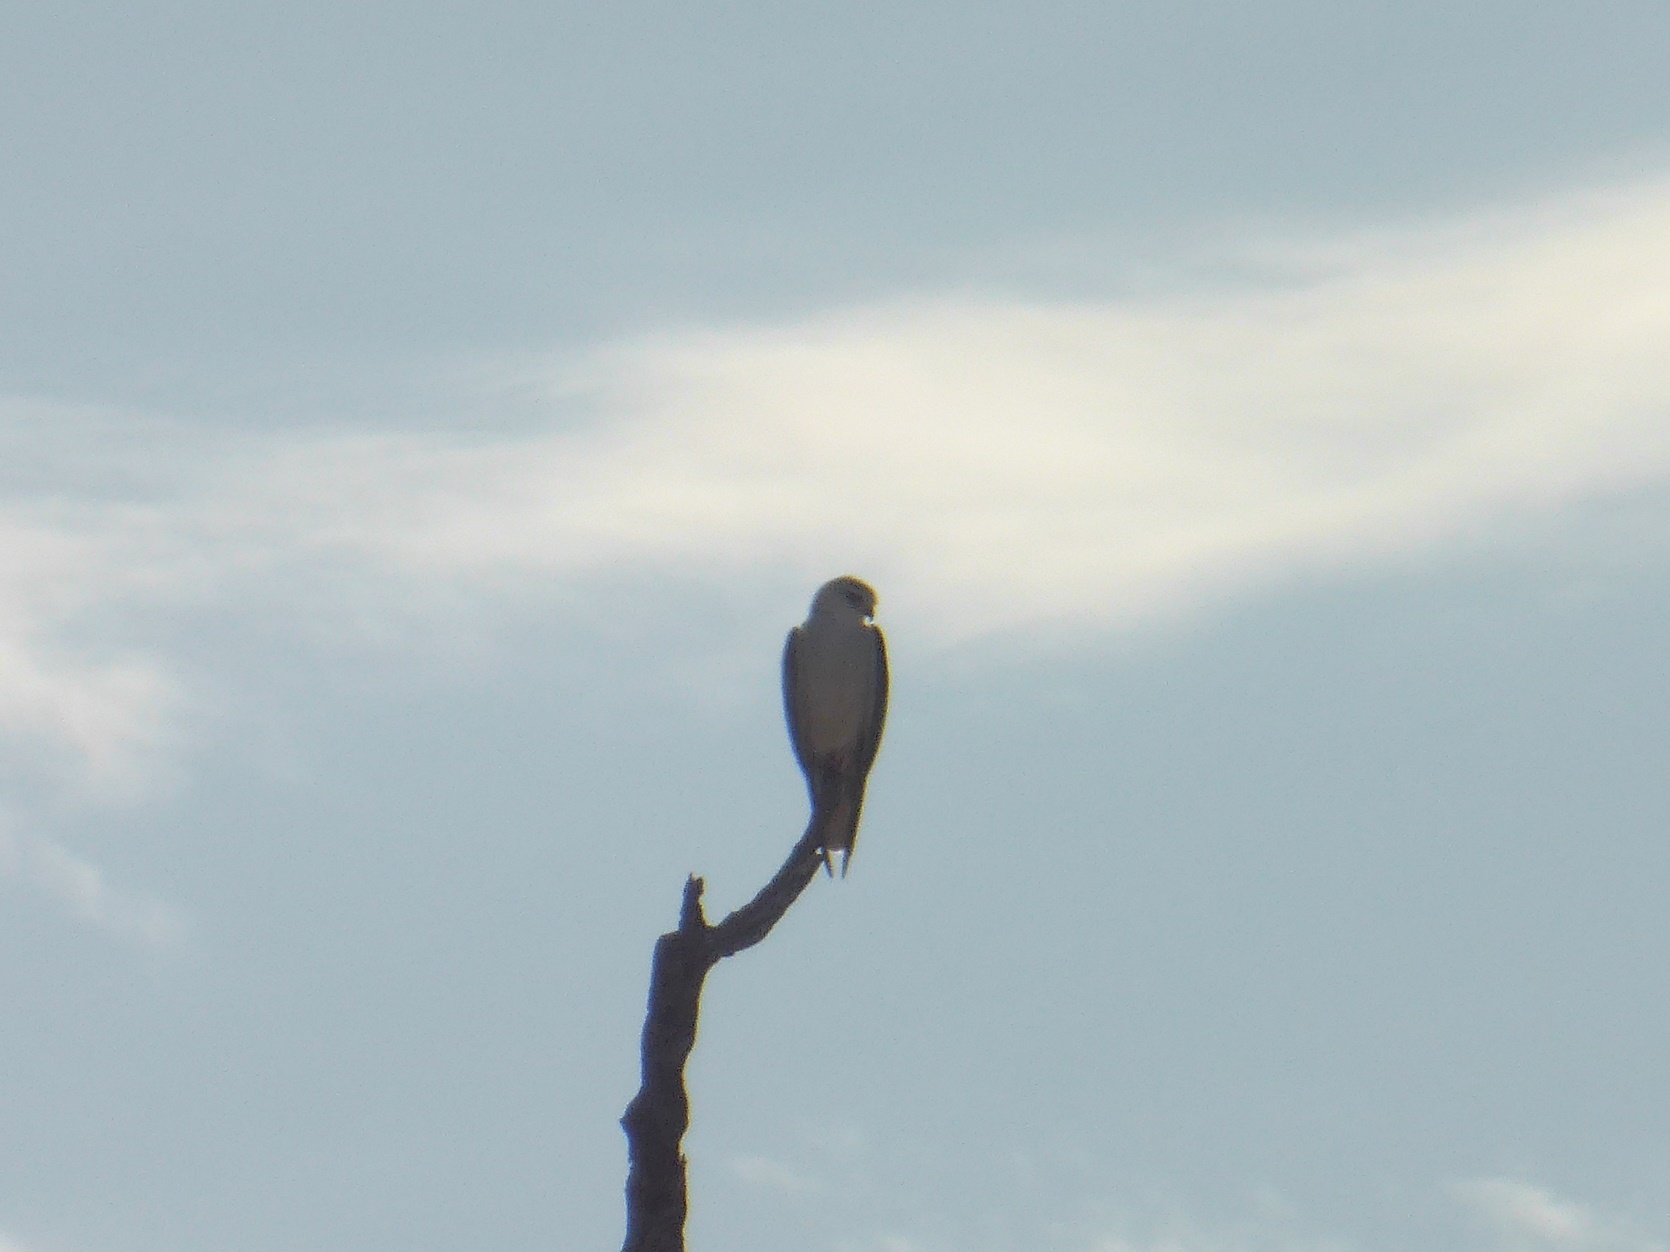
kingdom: Animalia
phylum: Chordata
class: Aves
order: Accipitriformes
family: Accipitridae
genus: Elanus
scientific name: Elanus caeruleus
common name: Black-winged kite
